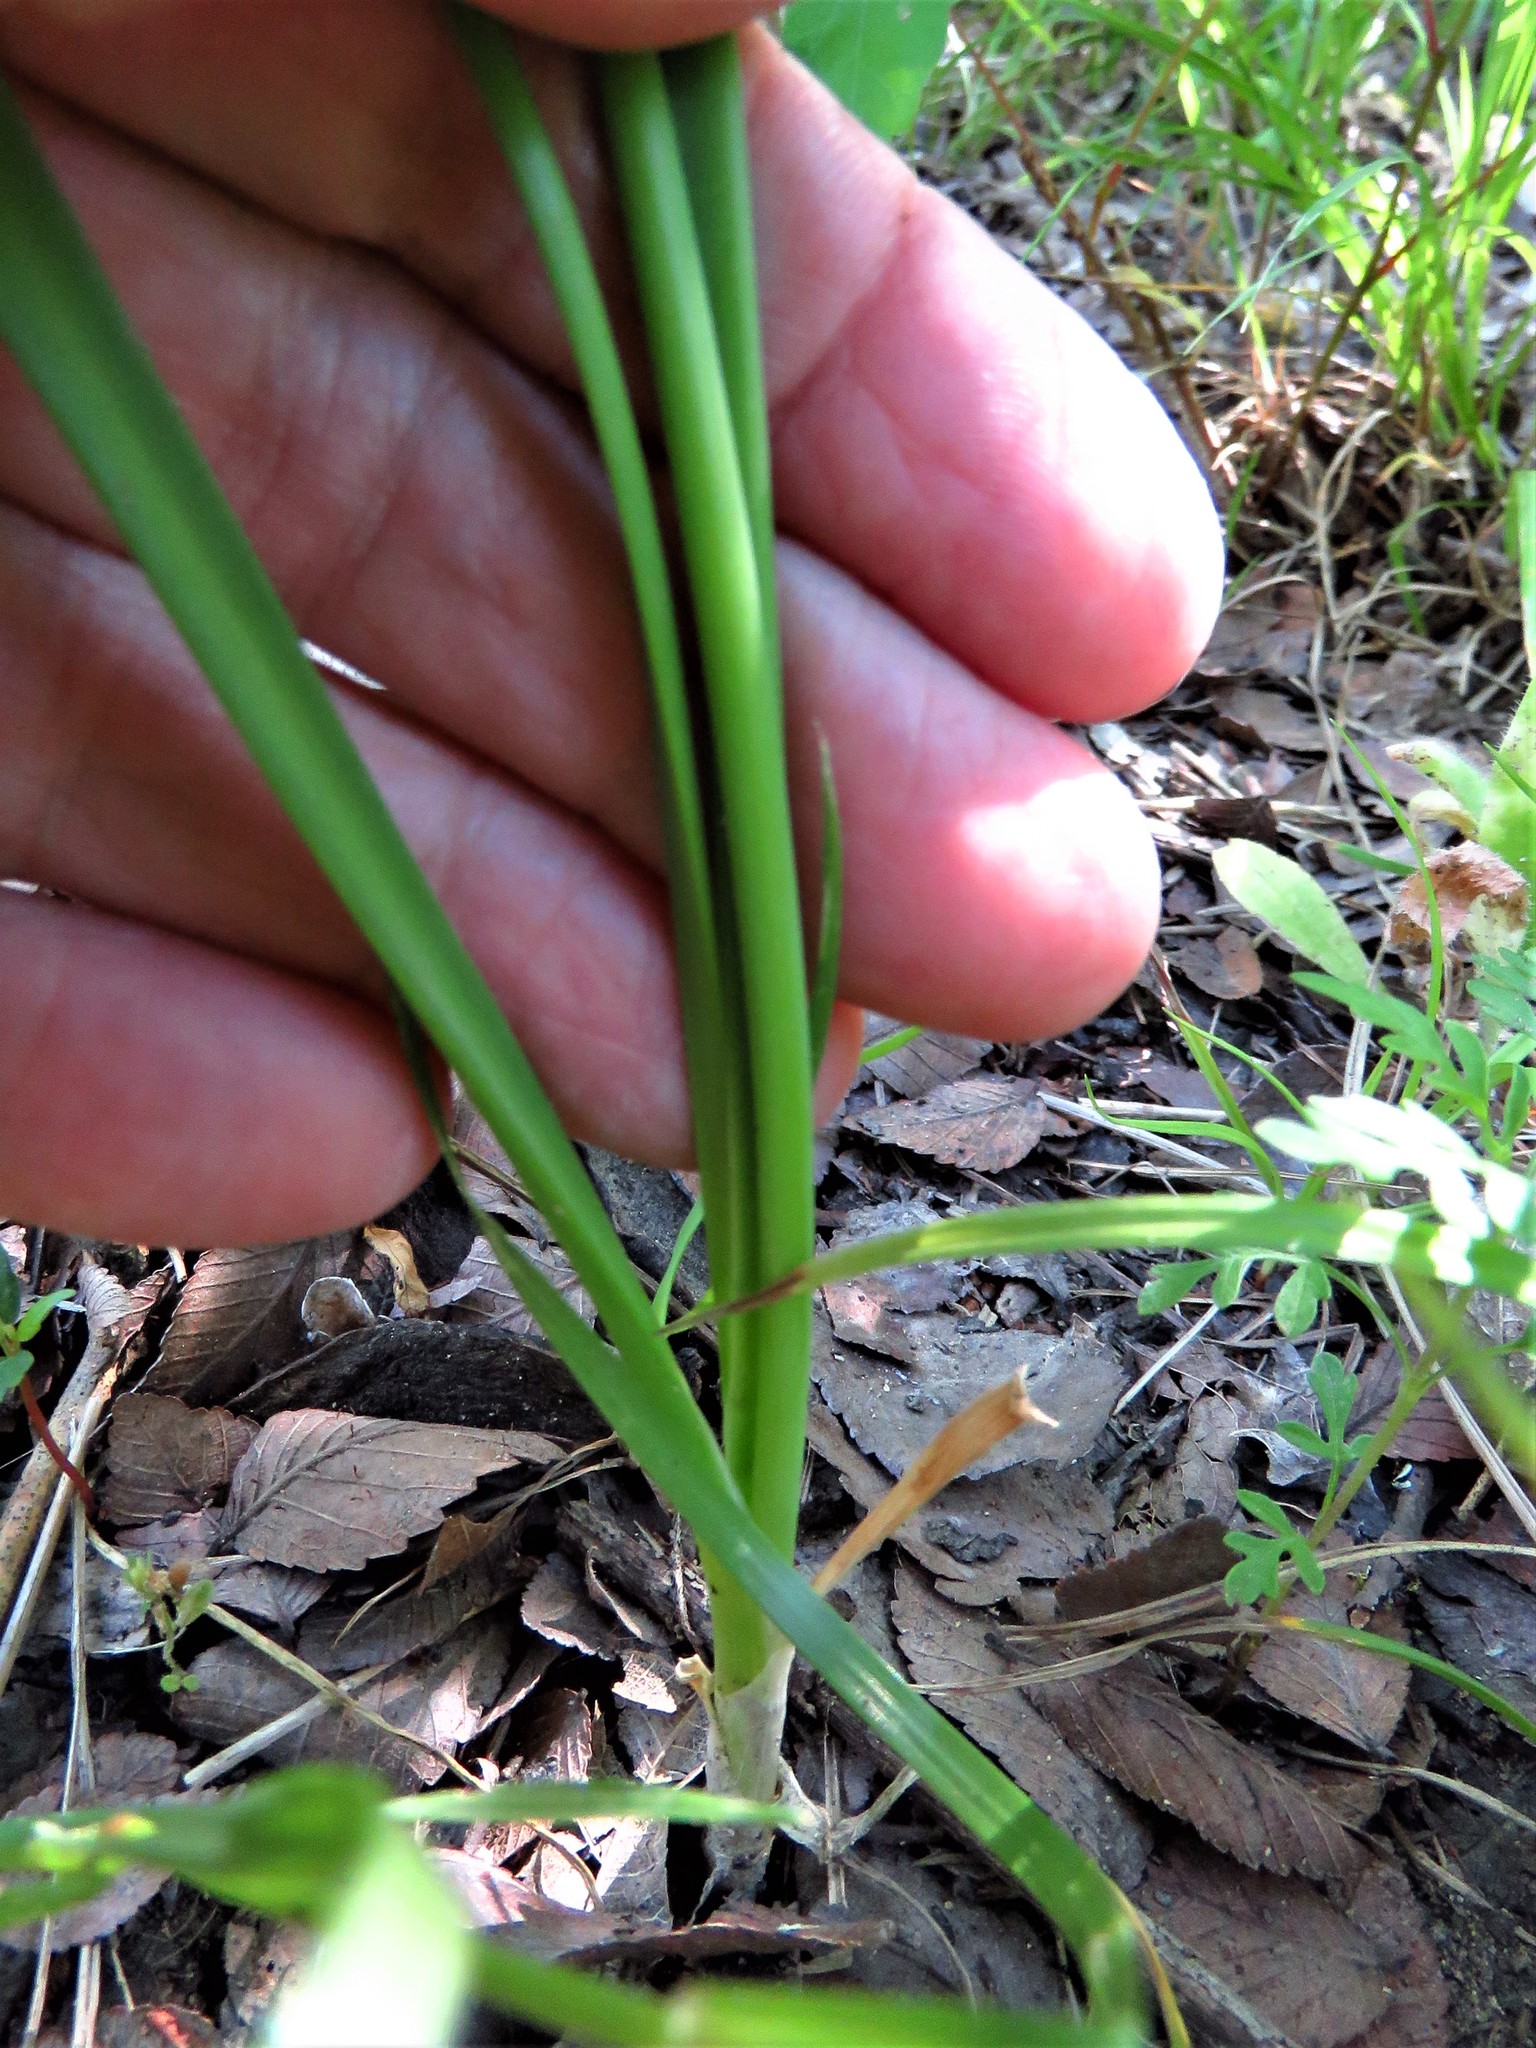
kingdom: Plantae
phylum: Tracheophyta
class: Liliopsida
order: Asparagales
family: Amaryllidaceae
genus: Allium
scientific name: Allium canadense
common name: Meadow garlic
